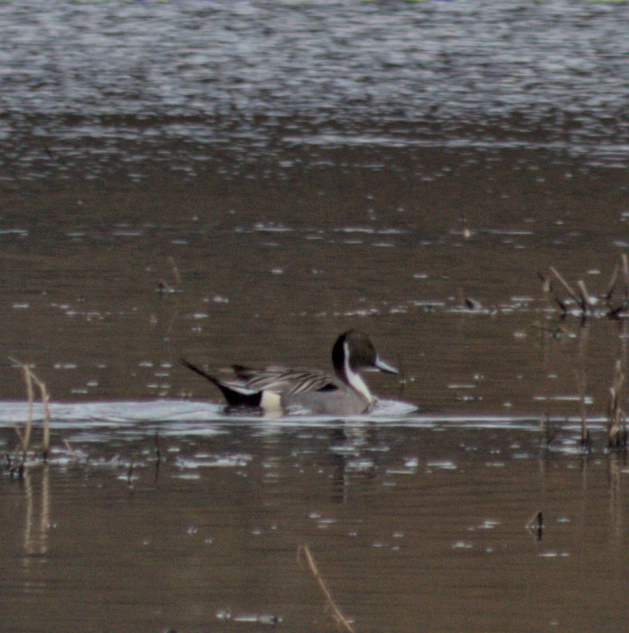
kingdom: Animalia
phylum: Chordata
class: Aves
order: Anseriformes
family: Anatidae
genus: Anas
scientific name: Anas acuta
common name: Northern pintail
